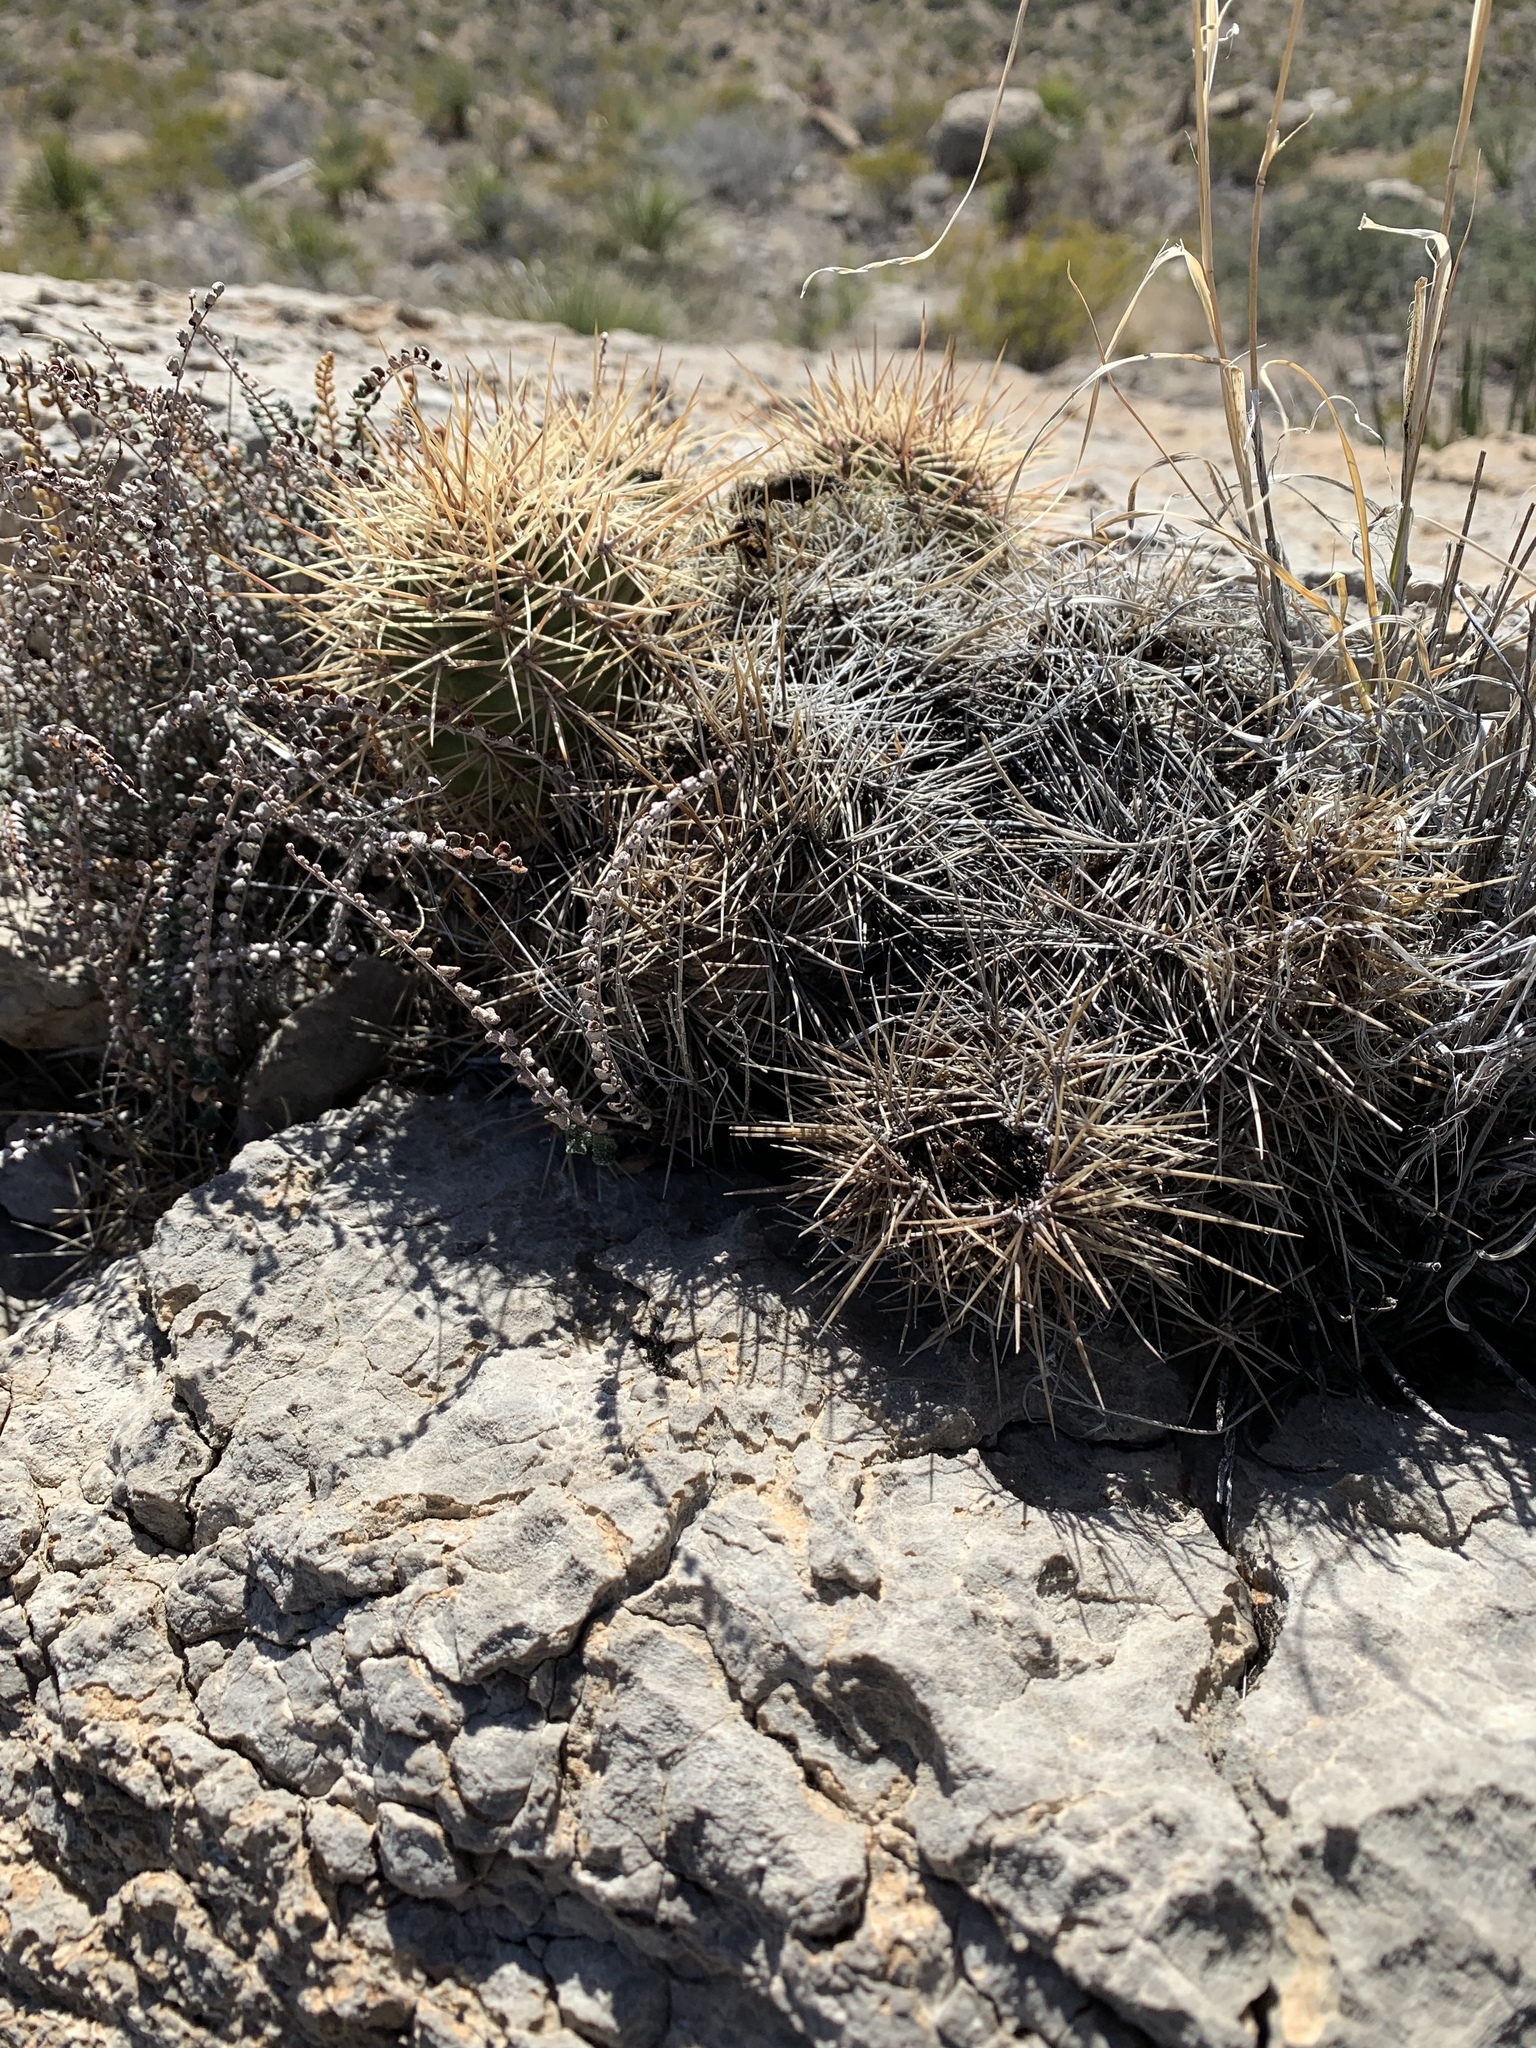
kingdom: Plantae
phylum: Tracheophyta
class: Magnoliopsida
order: Caryophyllales
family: Cactaceae
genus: Echinocereus
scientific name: Echinocereus coccineus
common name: Scarlet hedgehog cactus
